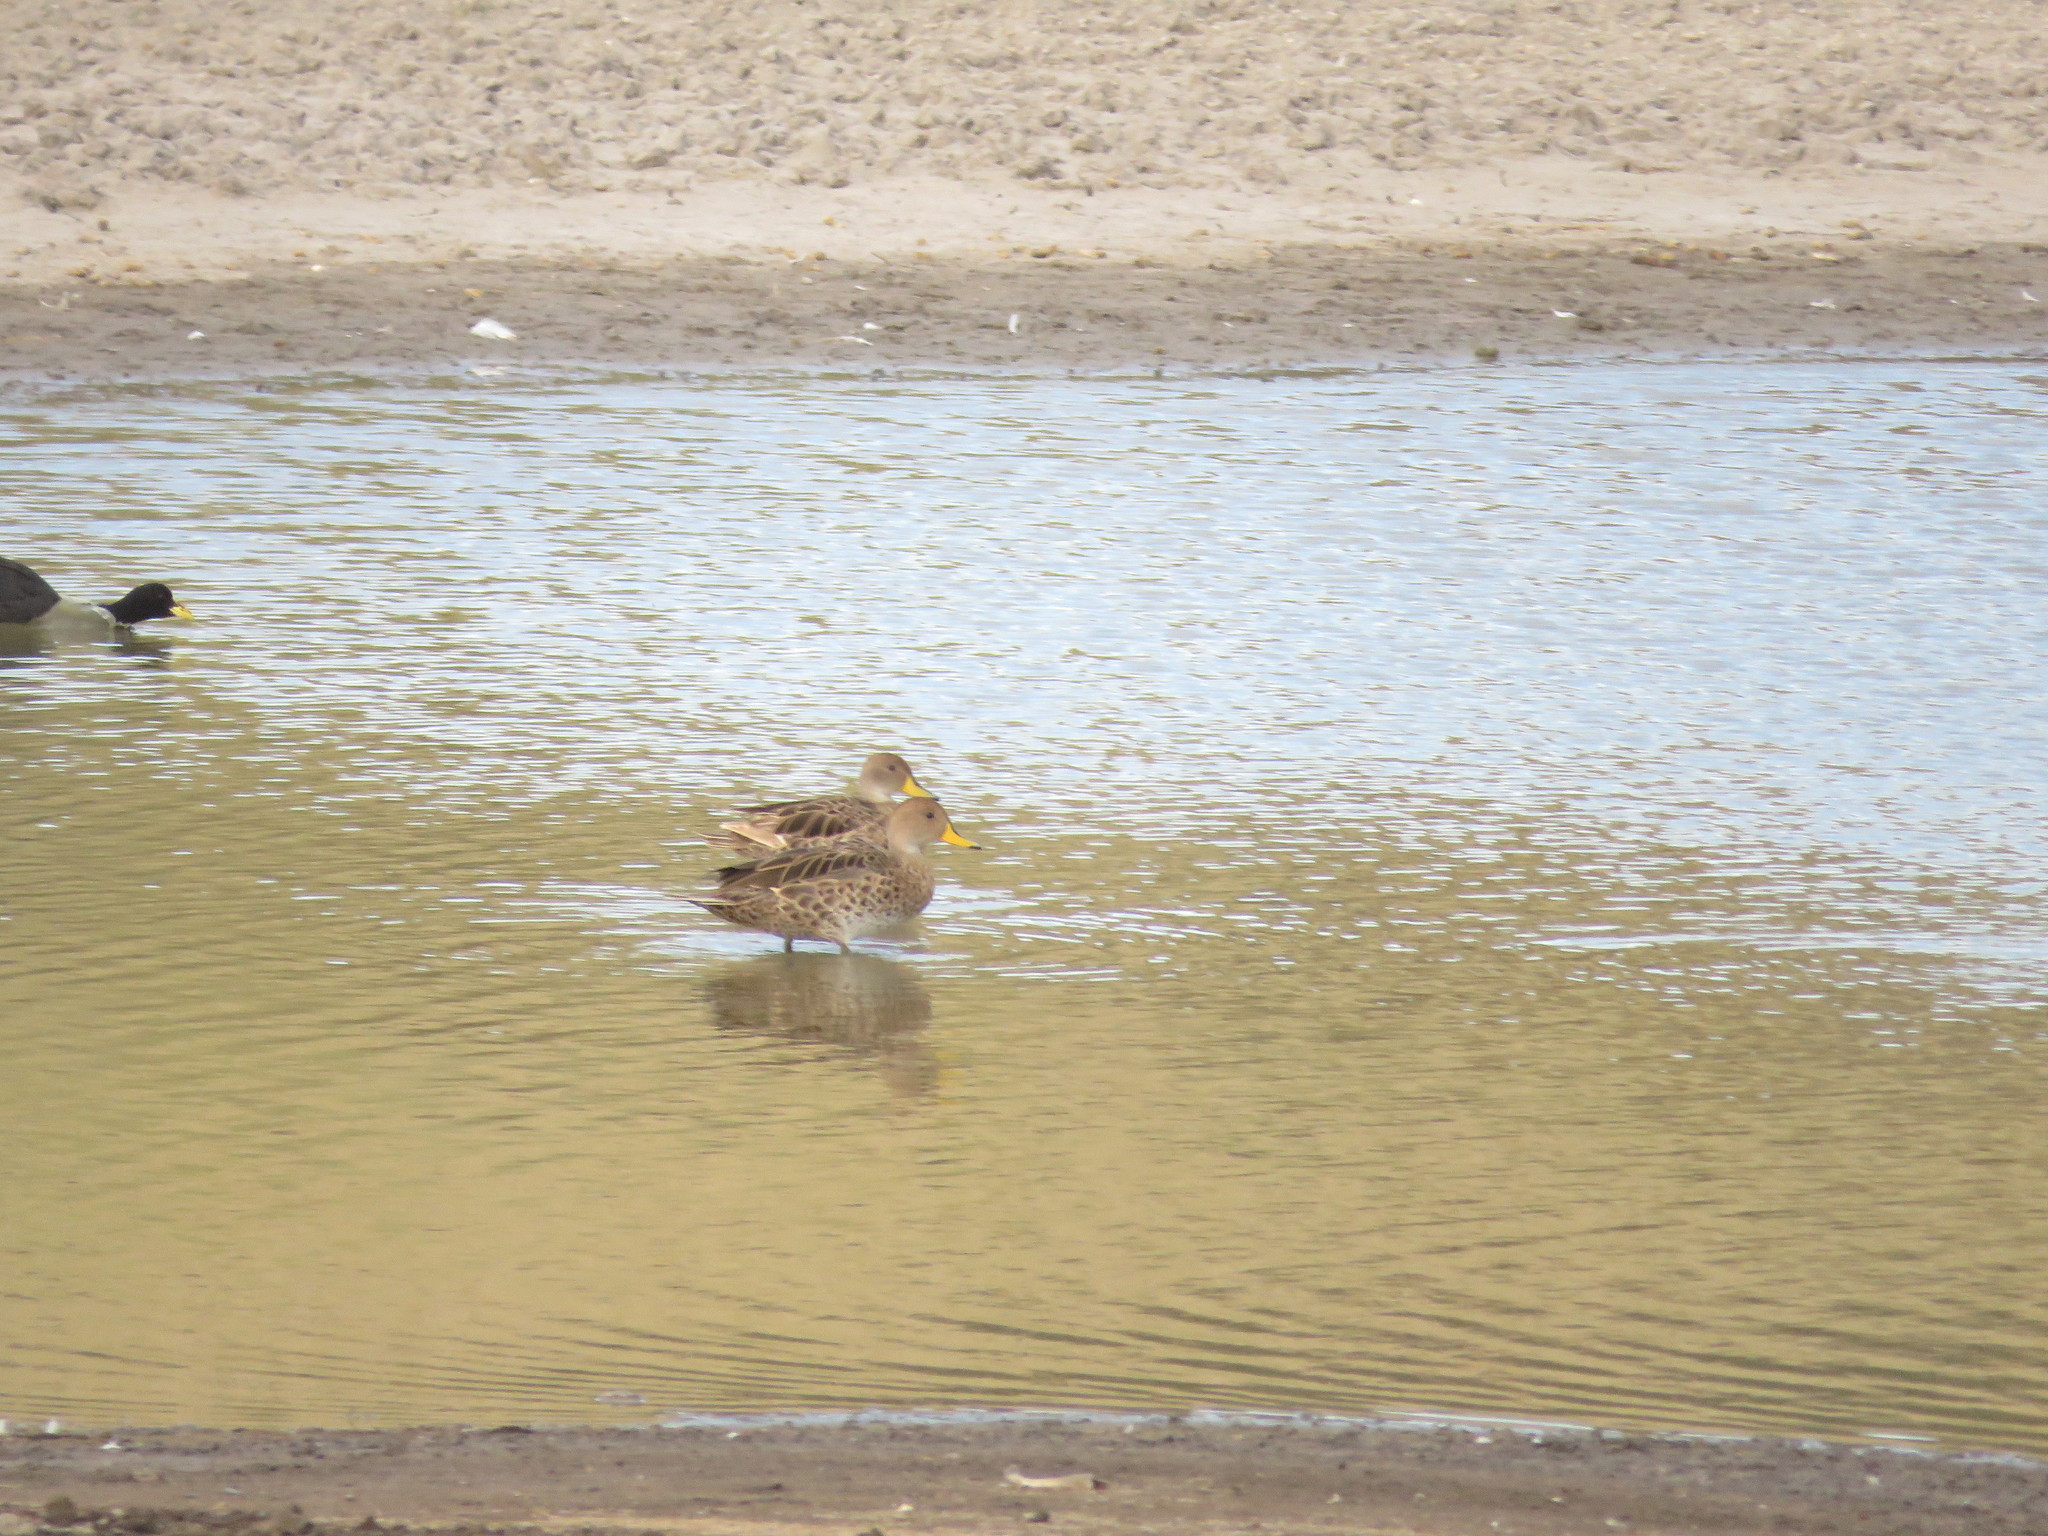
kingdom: Animalia
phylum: Chordata
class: Aves
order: Anseriformes
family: Anatidae
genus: Anas
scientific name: Anas georgica
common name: Yellow-billed pintail
